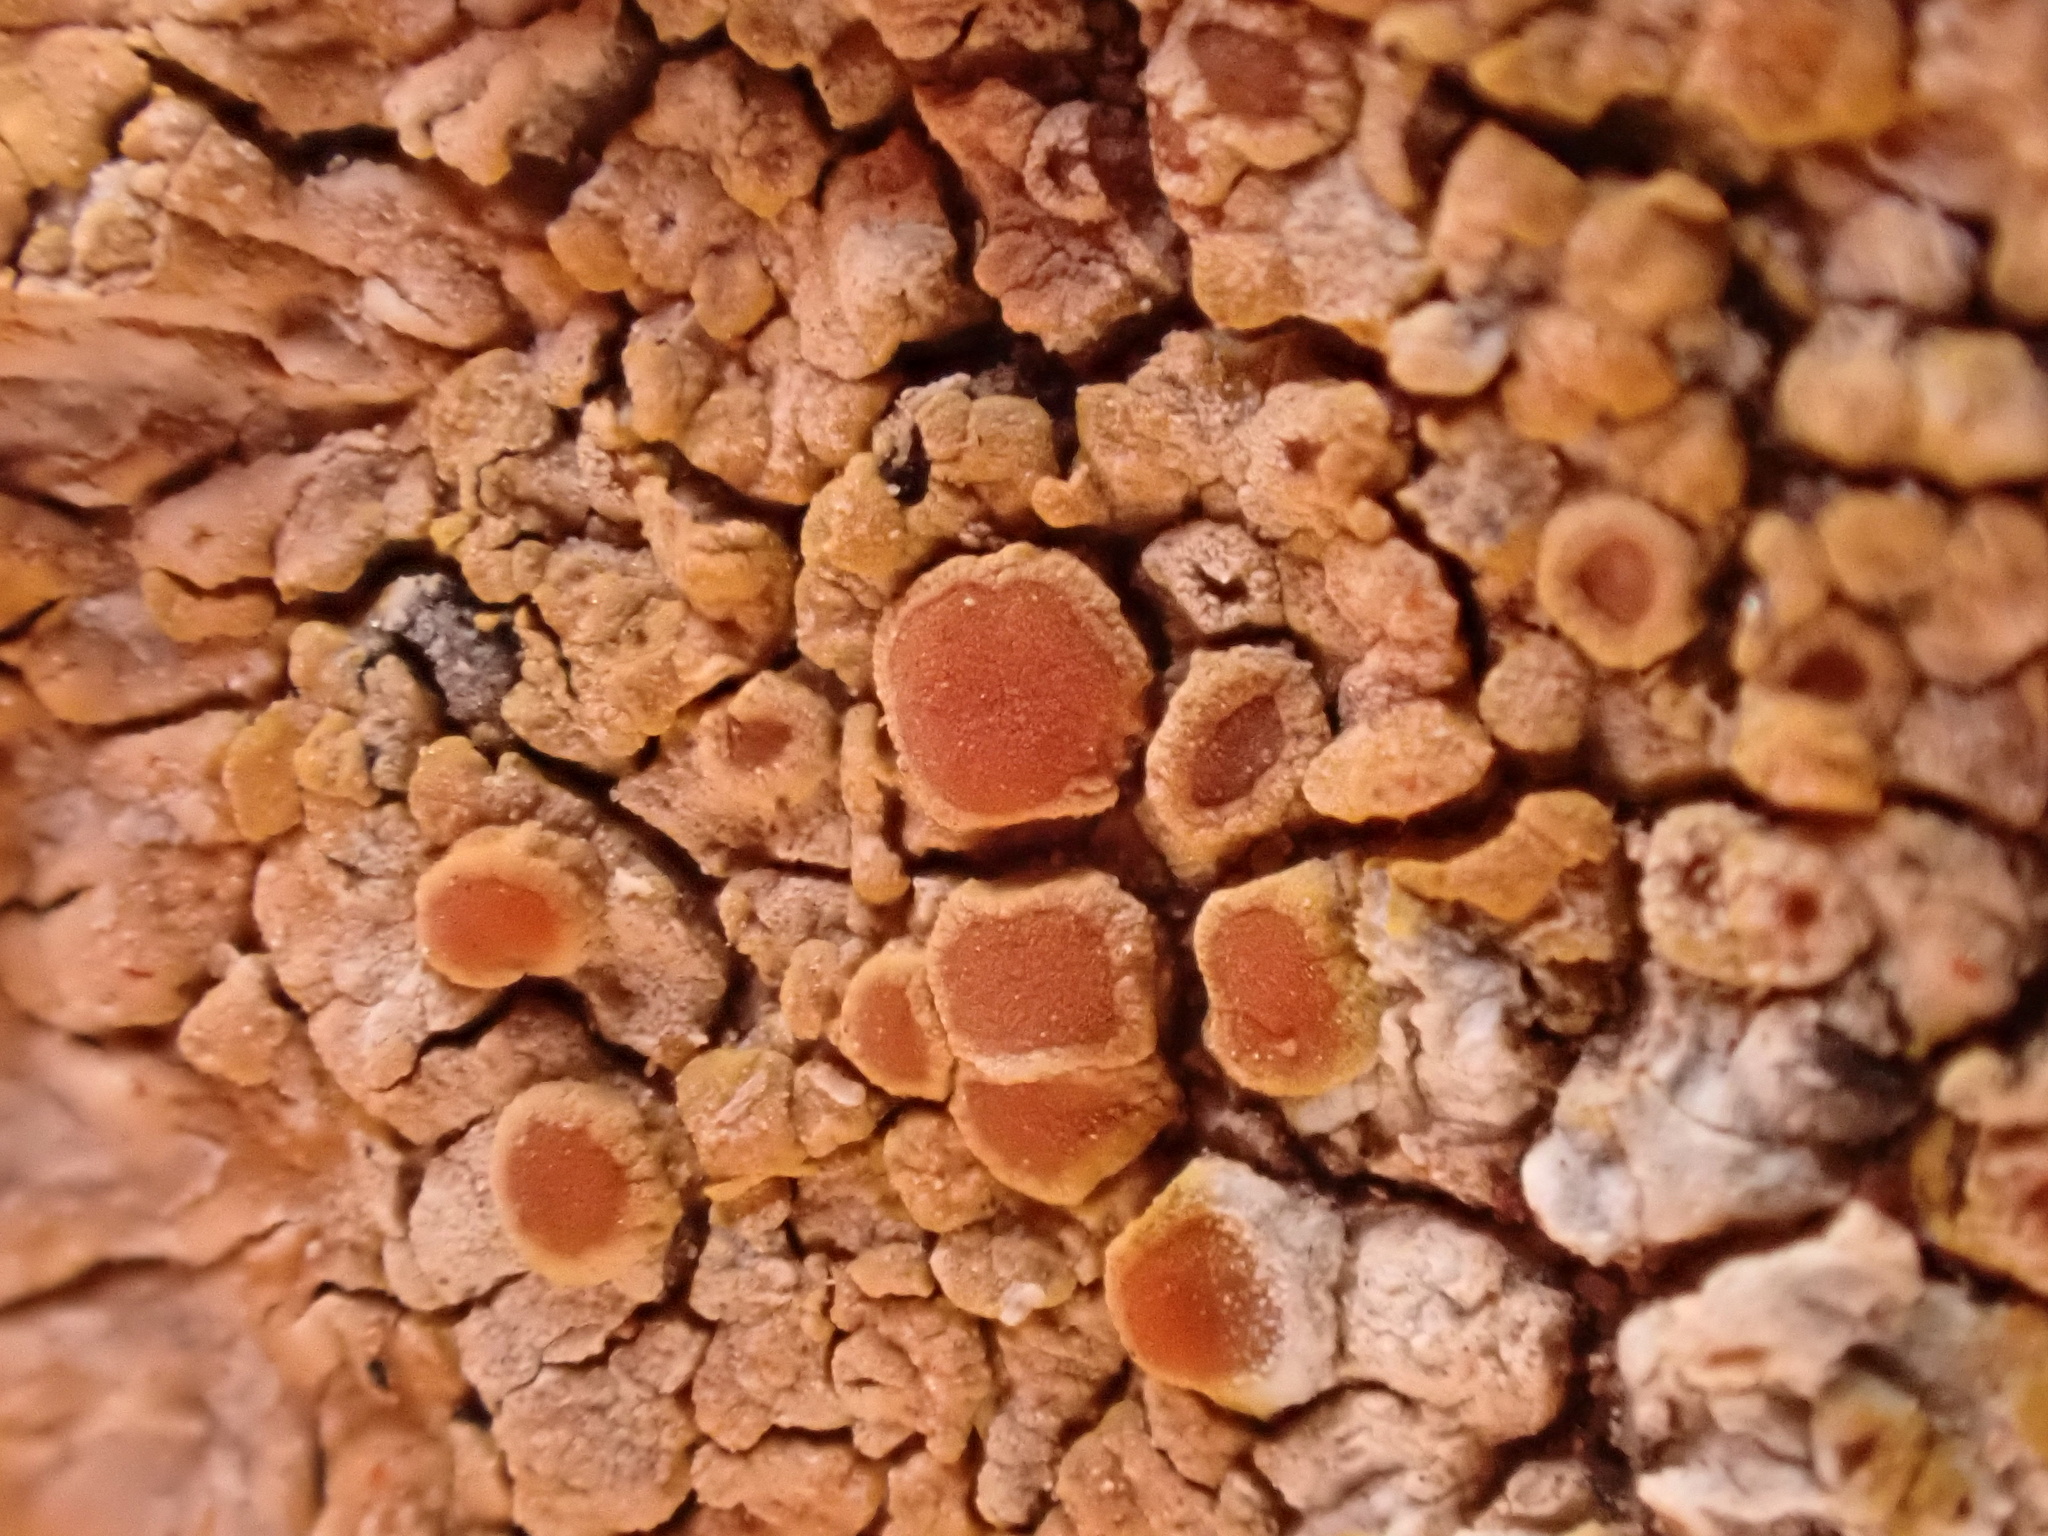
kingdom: Fungi
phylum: Ascomycota
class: Lecanoromycetes
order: Teloschistales
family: Teloschistaceae
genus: Variospora
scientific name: Variospora aurantia
